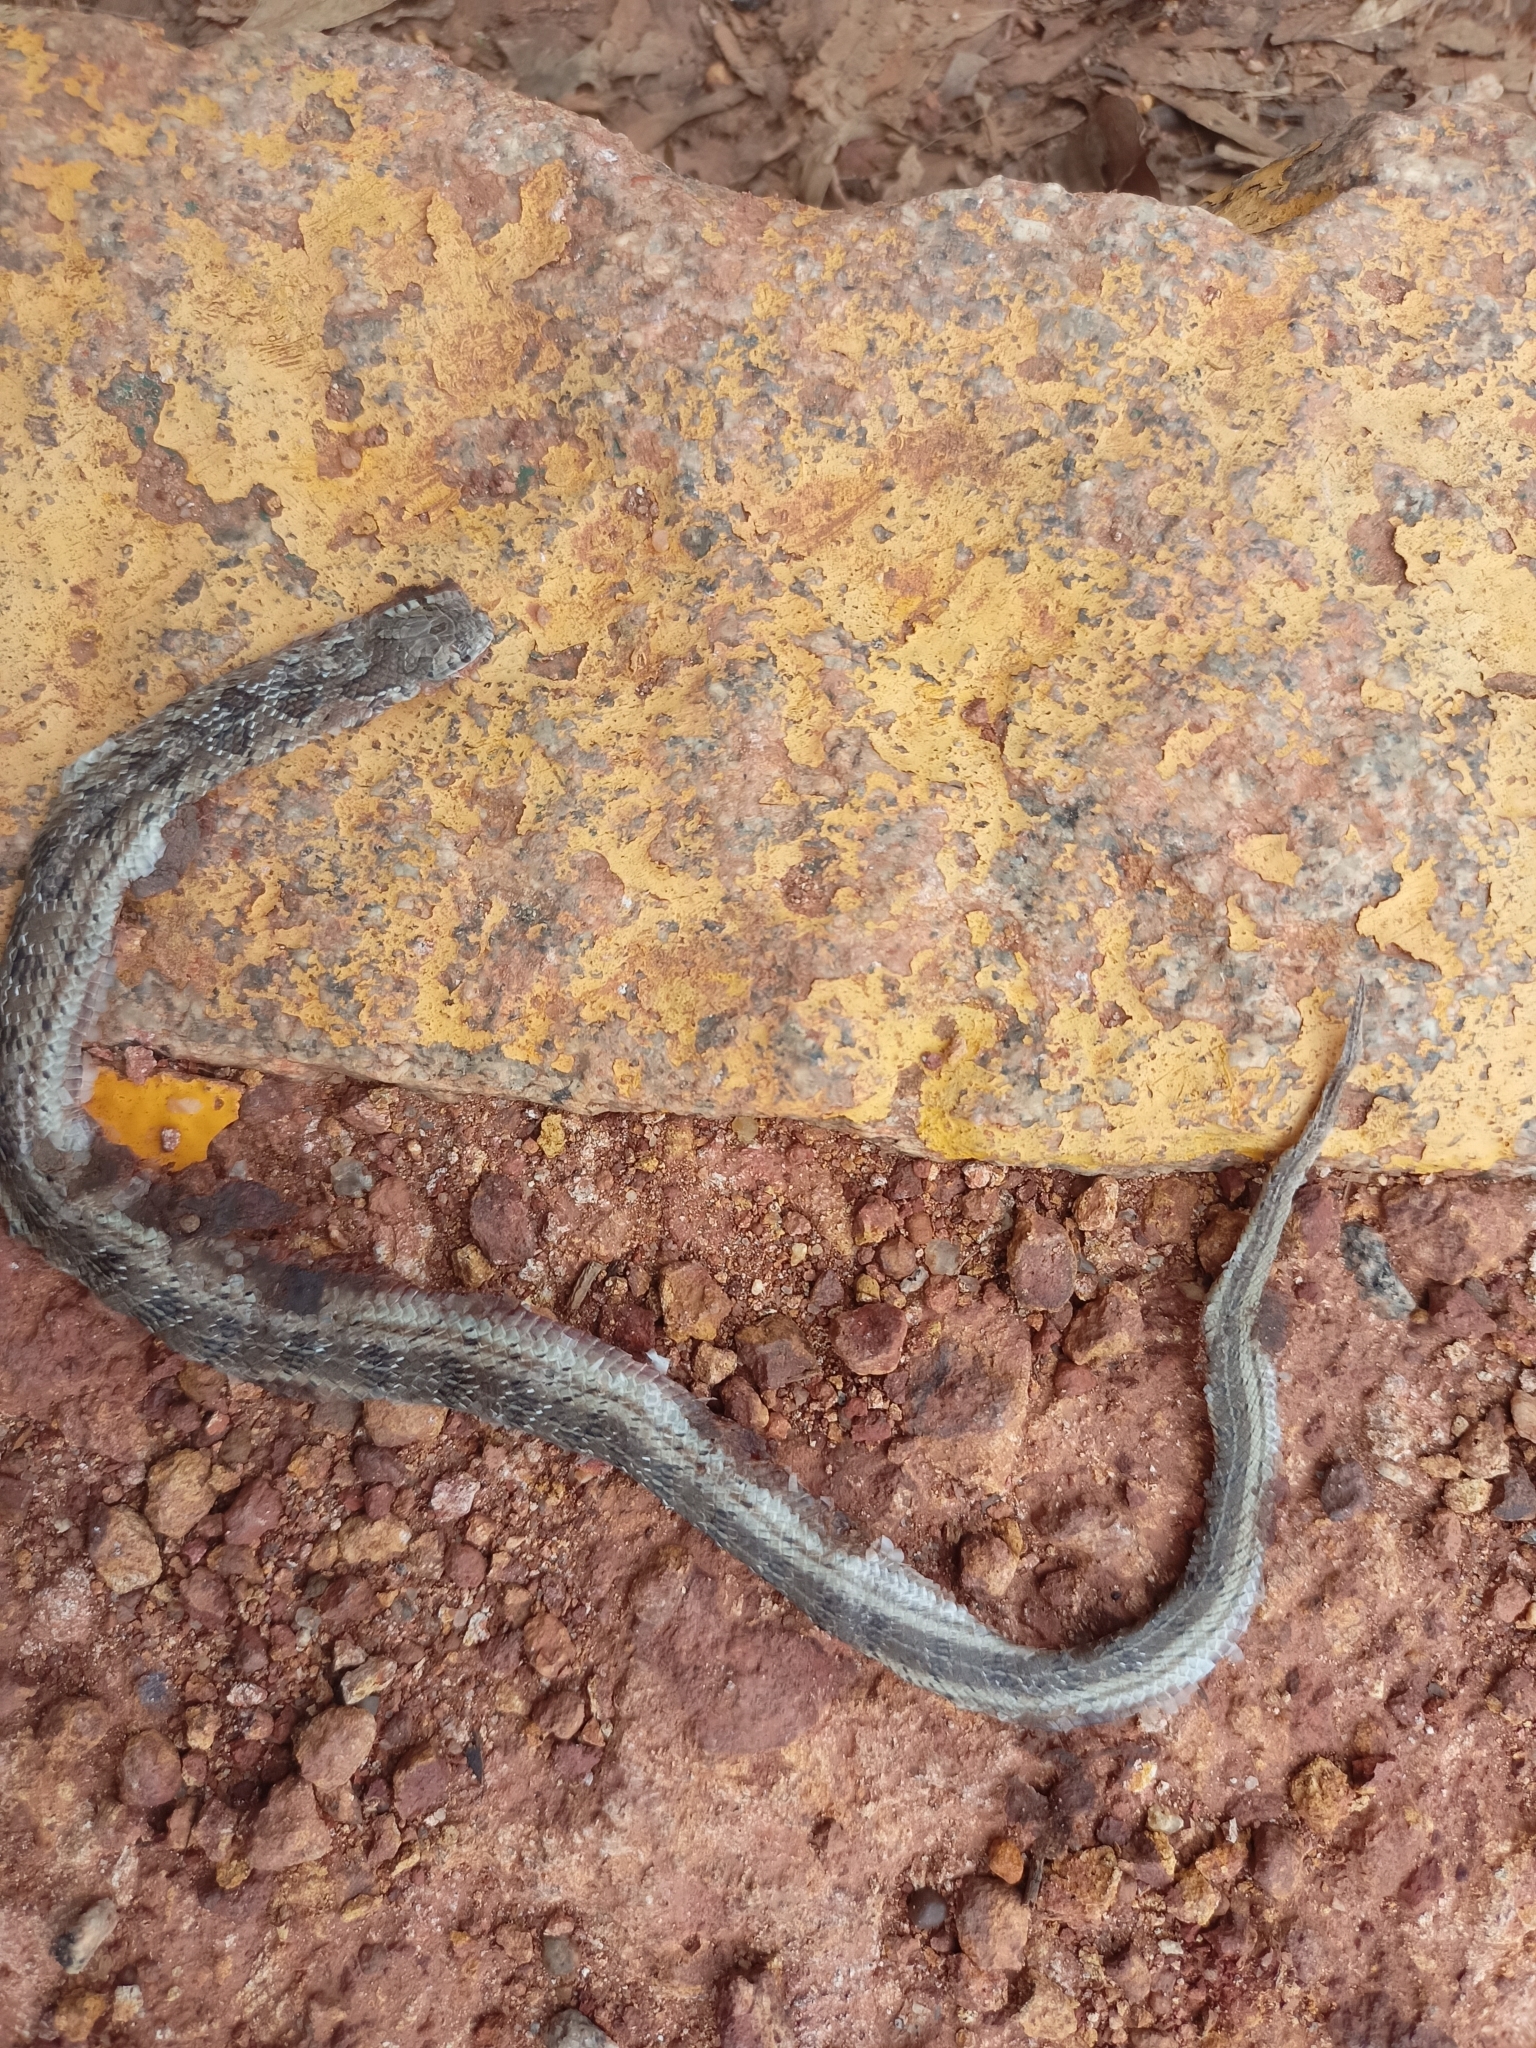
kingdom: Animalia
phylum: Chordata
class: Squamata
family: Colubridae
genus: Oligodon
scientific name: Oligodon taeniolatus
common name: Loos snake
